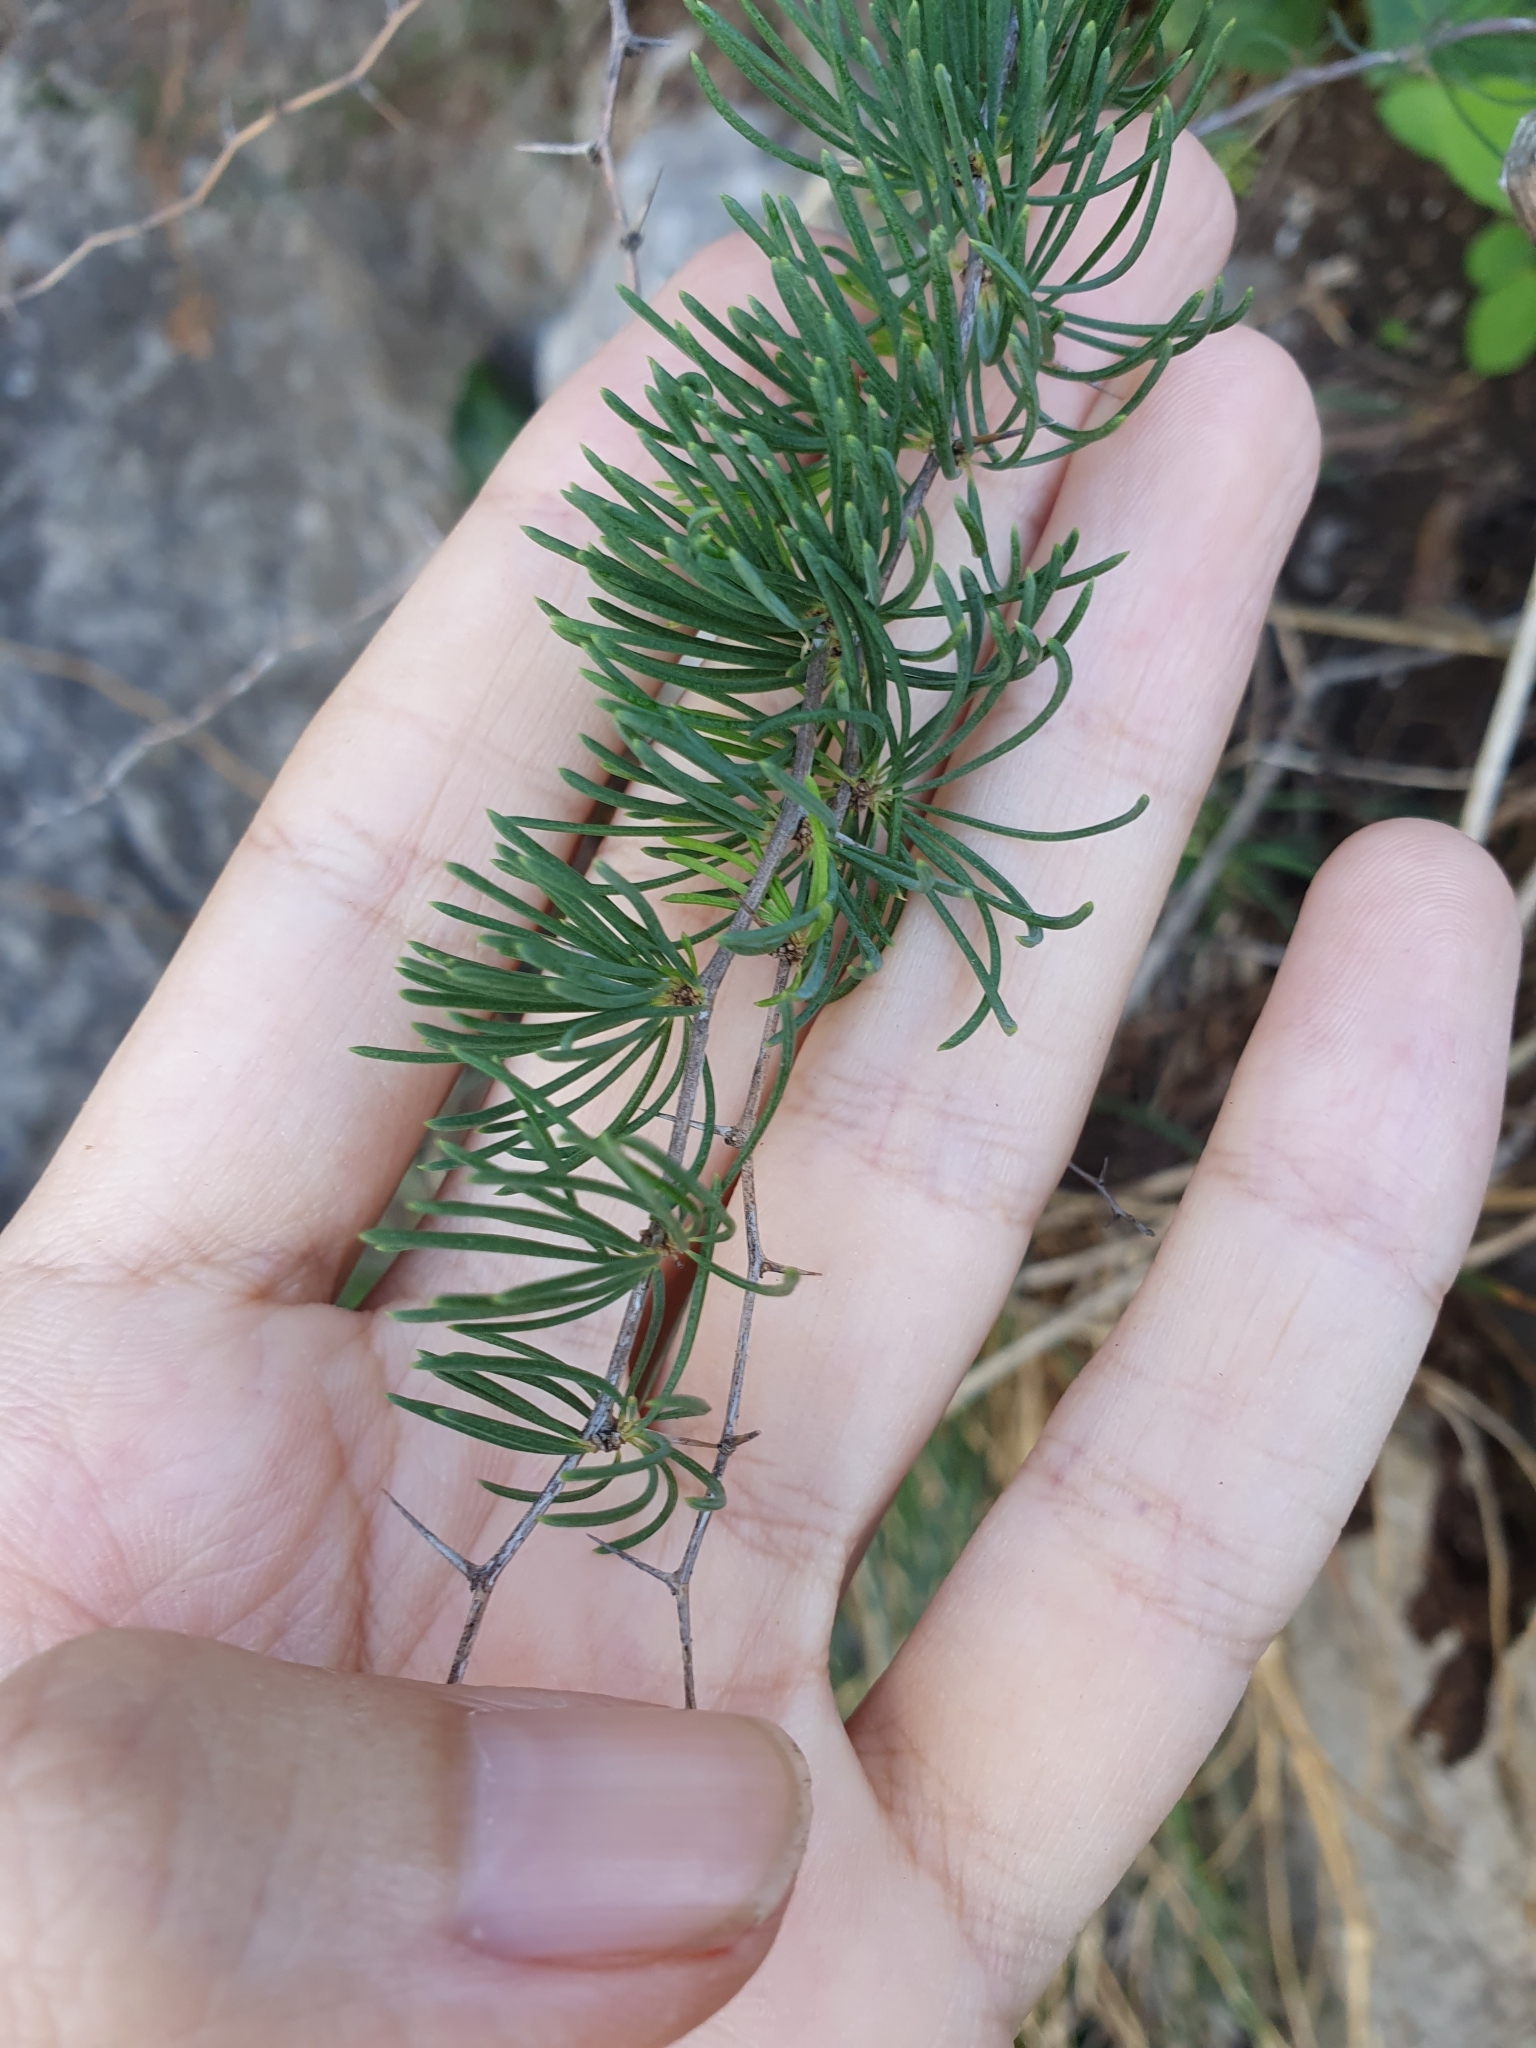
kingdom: Plantae
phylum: Tracheophyta
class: Liliopsida
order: Asparagales
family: Asparagaceae
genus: Asparagus
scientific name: Asparagus albus
